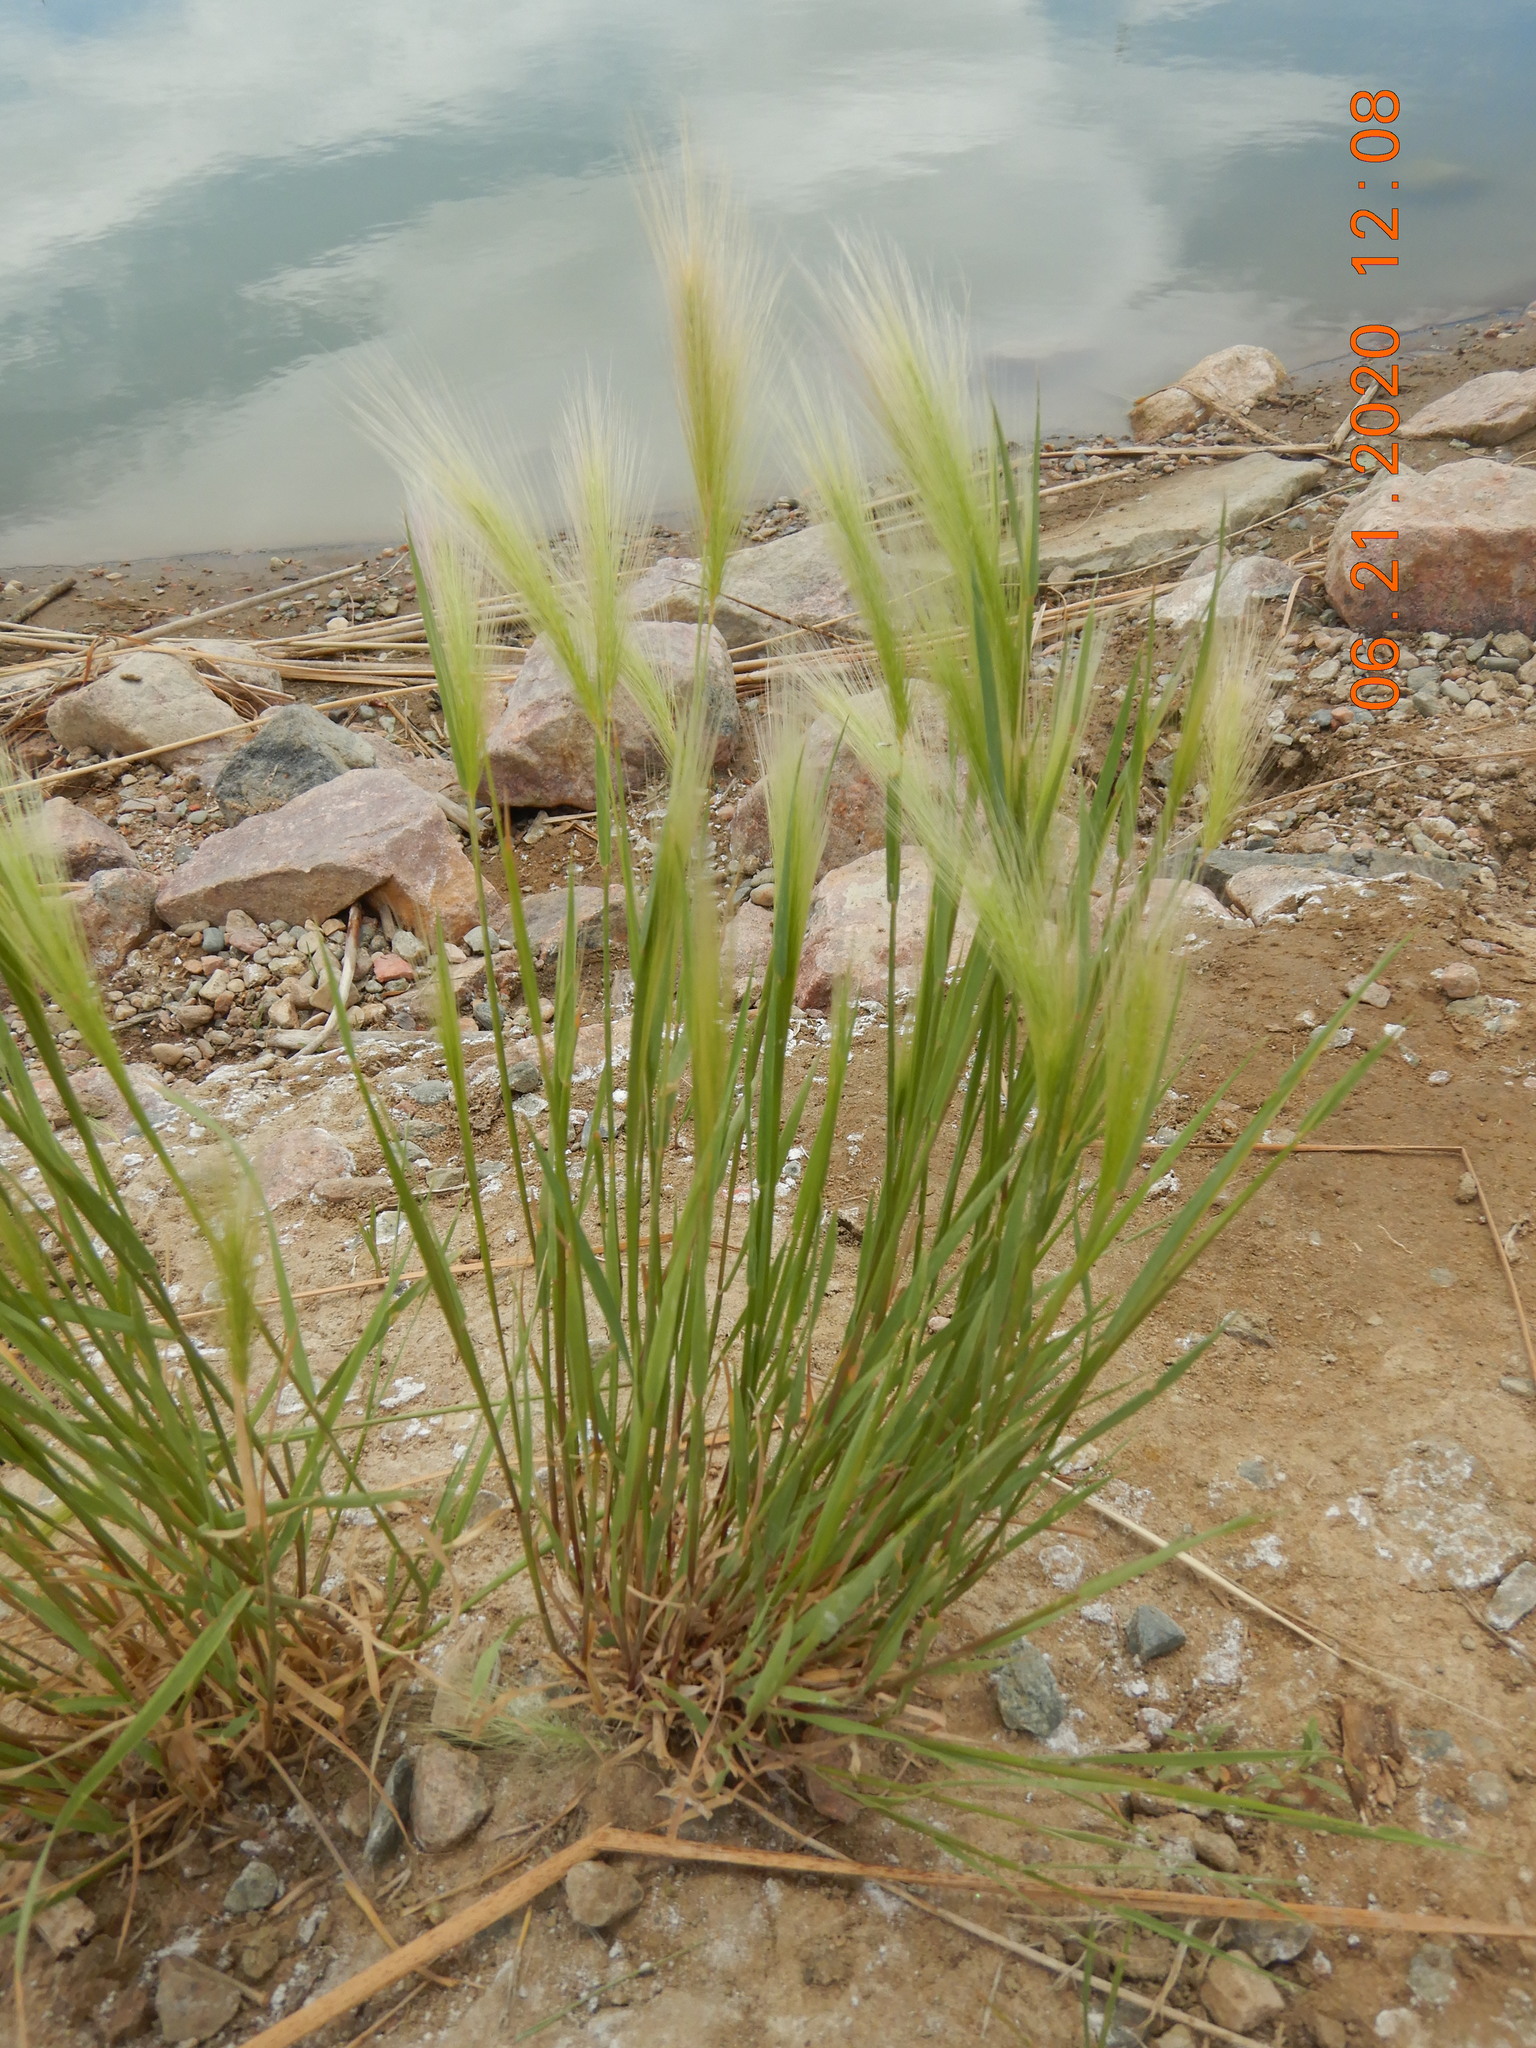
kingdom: Plantae
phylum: Tracheophyta
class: Liliopsida
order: Poales
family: Poaceae
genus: Hordeum
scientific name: Hordeum jubatum
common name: Foxtail barley
